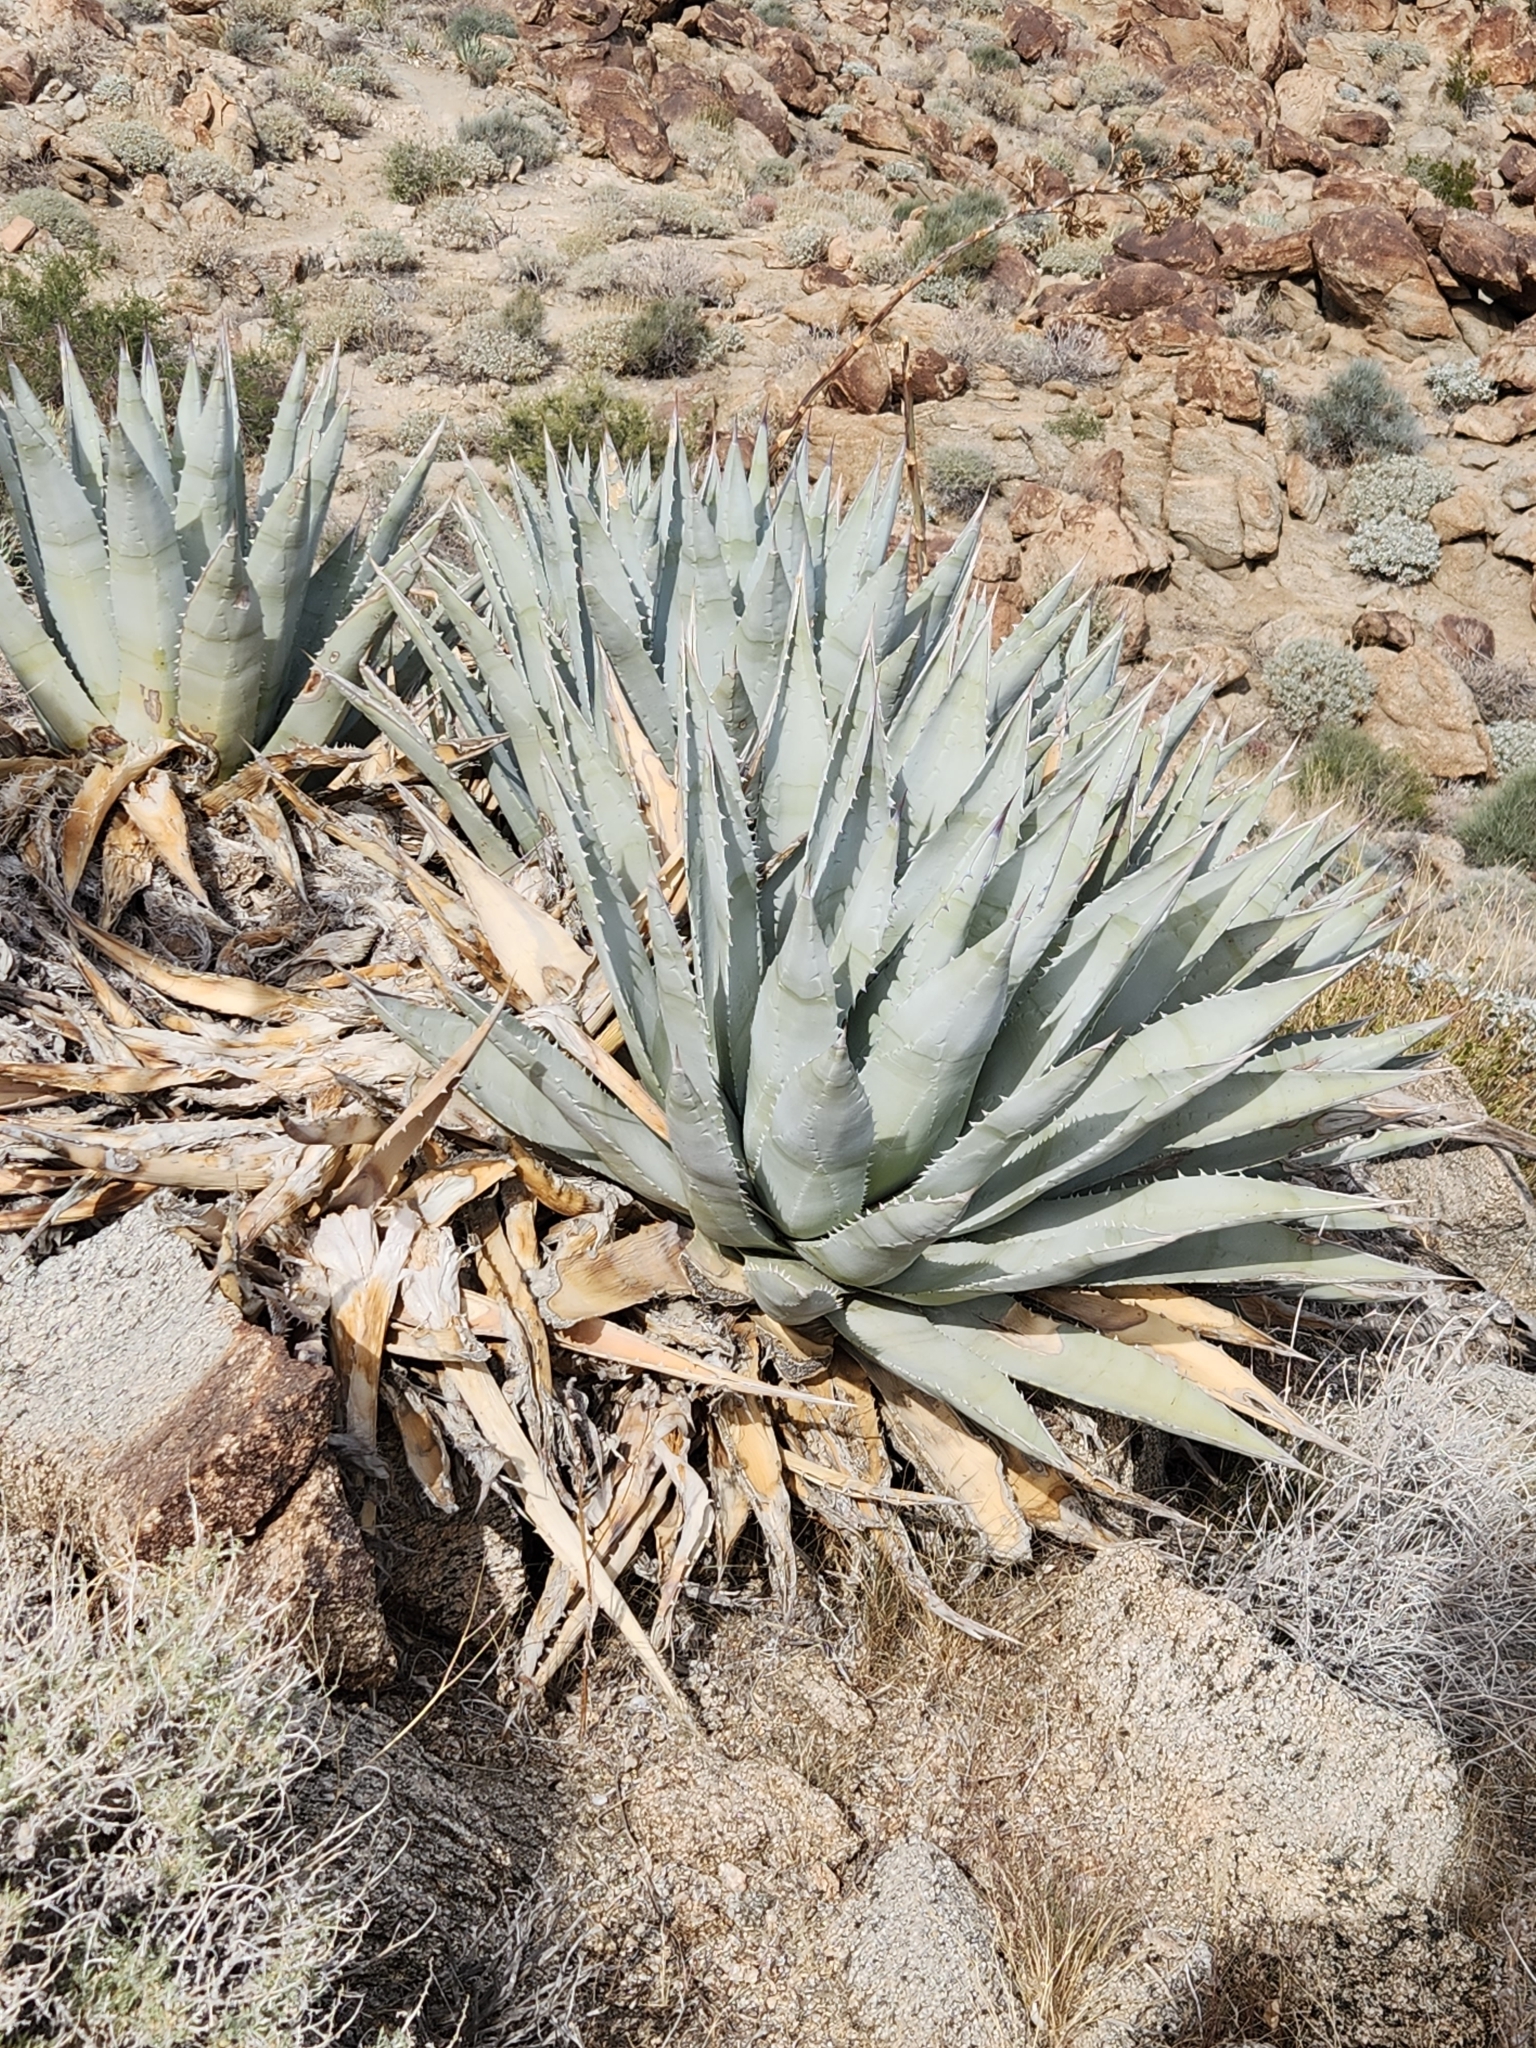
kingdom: Plantae
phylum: Tracheophyta
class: Liliopsida
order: Asparagales
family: Asparagaceae
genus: Agave
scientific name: Agave deserti
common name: Desert agave
